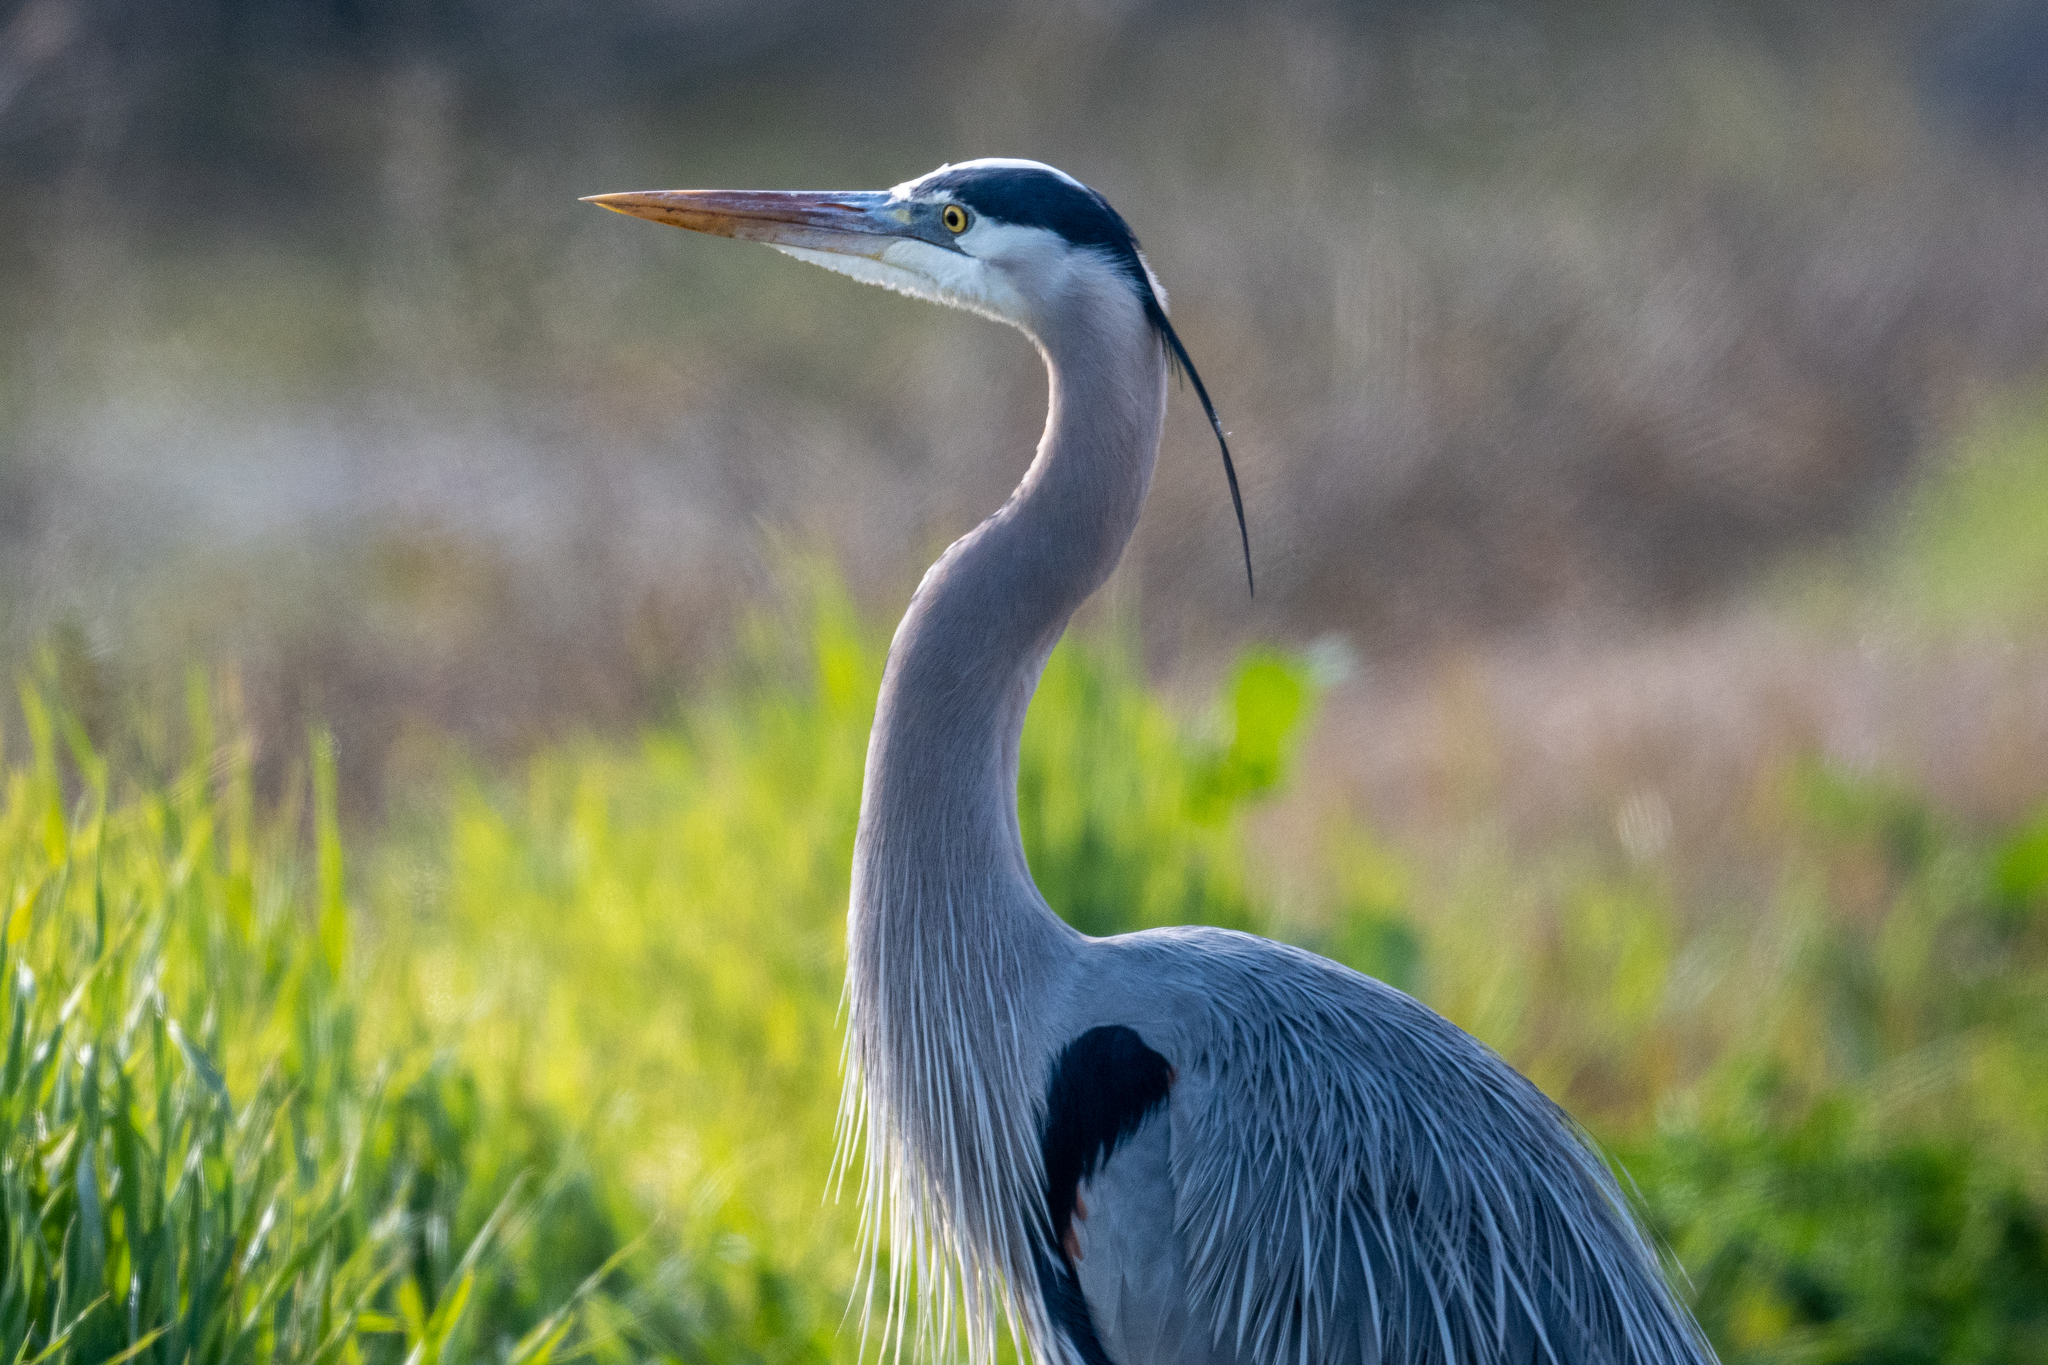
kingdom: Animalia
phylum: Chordata
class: Aves
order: Pelecaniformes
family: Ardeidae
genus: Ardea
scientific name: Ardea herodias
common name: Great blue heron
